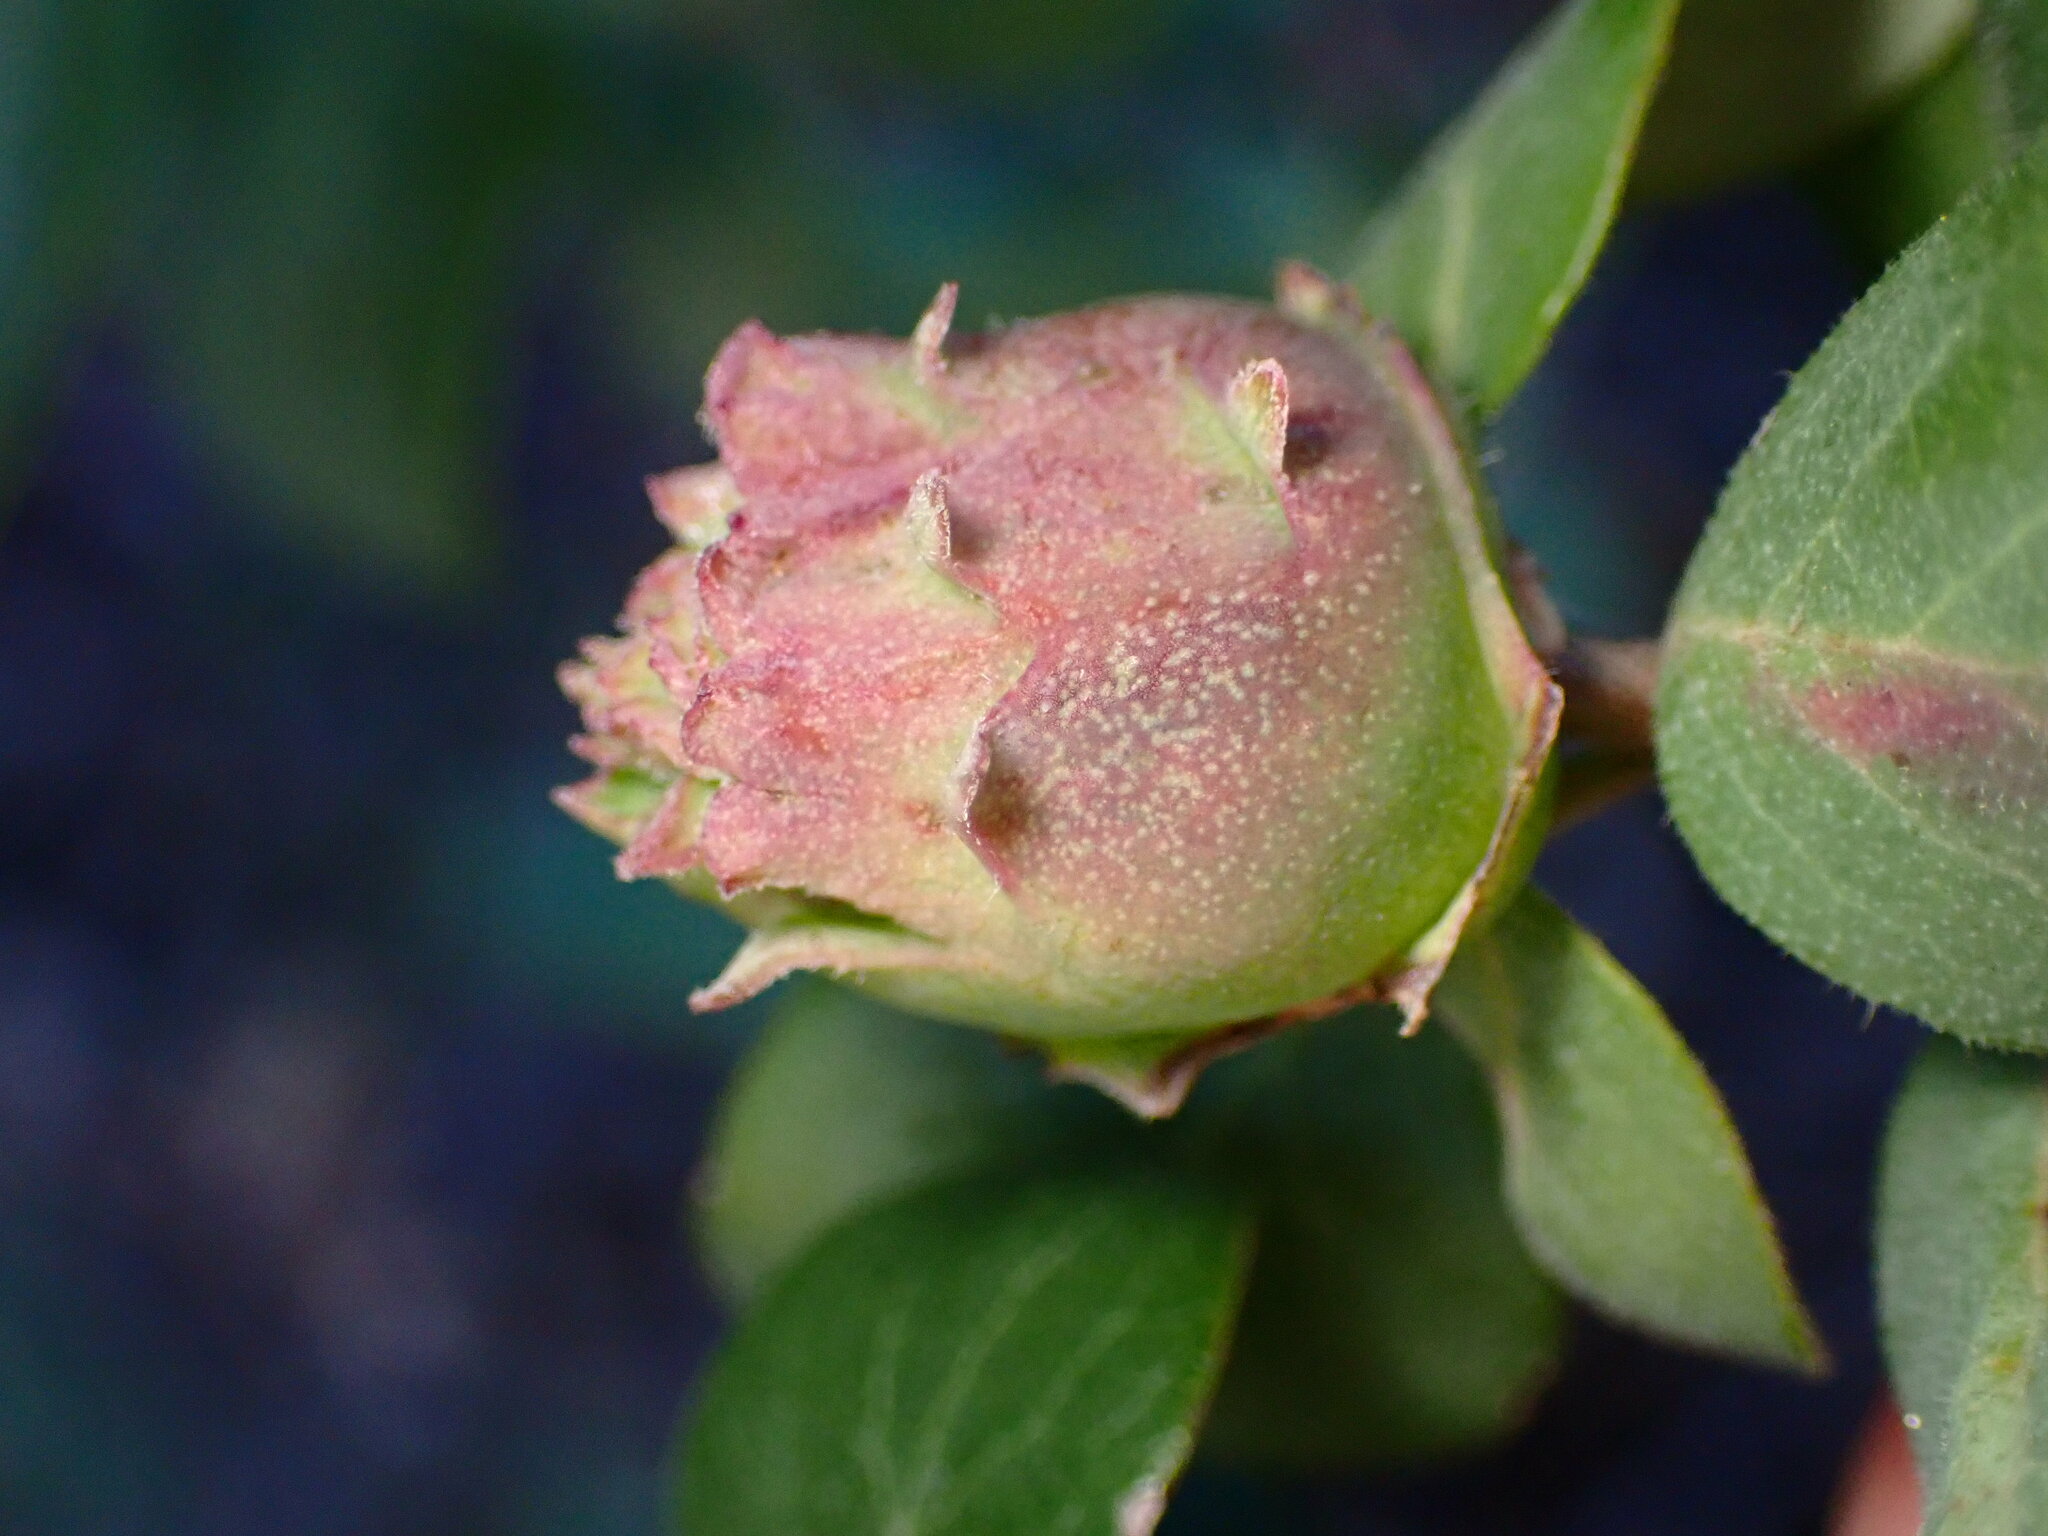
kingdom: Animalia
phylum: Arthropoda
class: Insecta
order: Diptera
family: Cecidomyiidae
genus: Lonicerae
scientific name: Lonicerae
